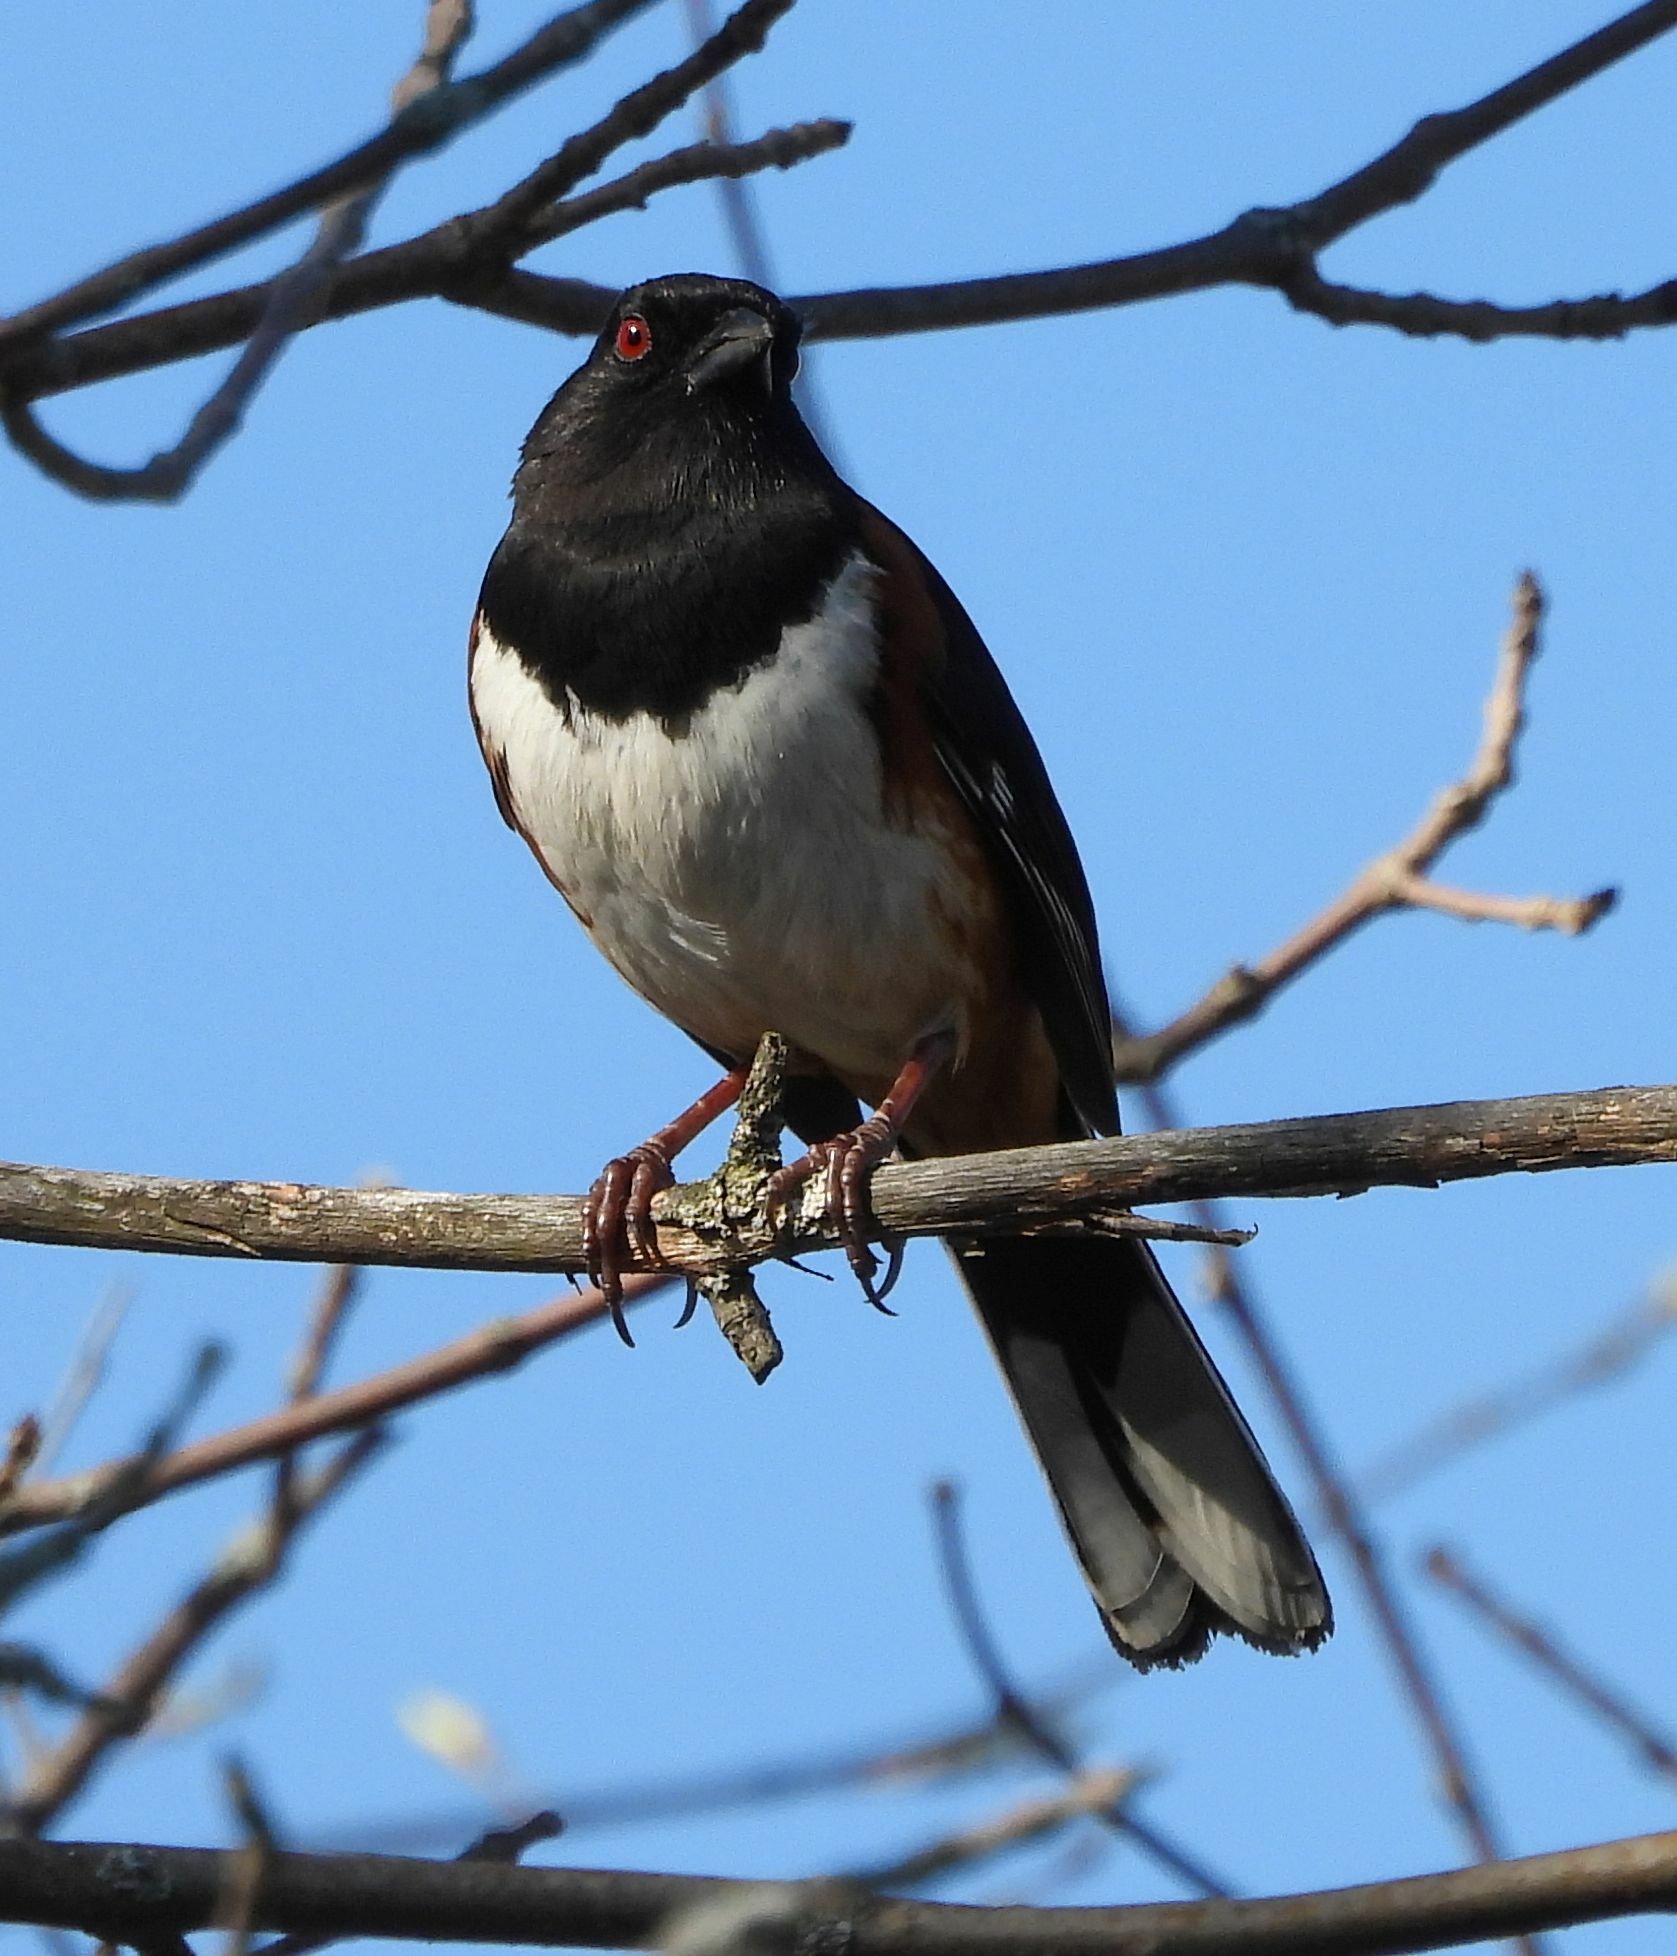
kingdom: Animalia
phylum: Chordata
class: Aves
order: Passeriformes
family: Passerellidae
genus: Pipilo
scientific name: Pipilo erythrophthalmus
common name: Eastern towhee
